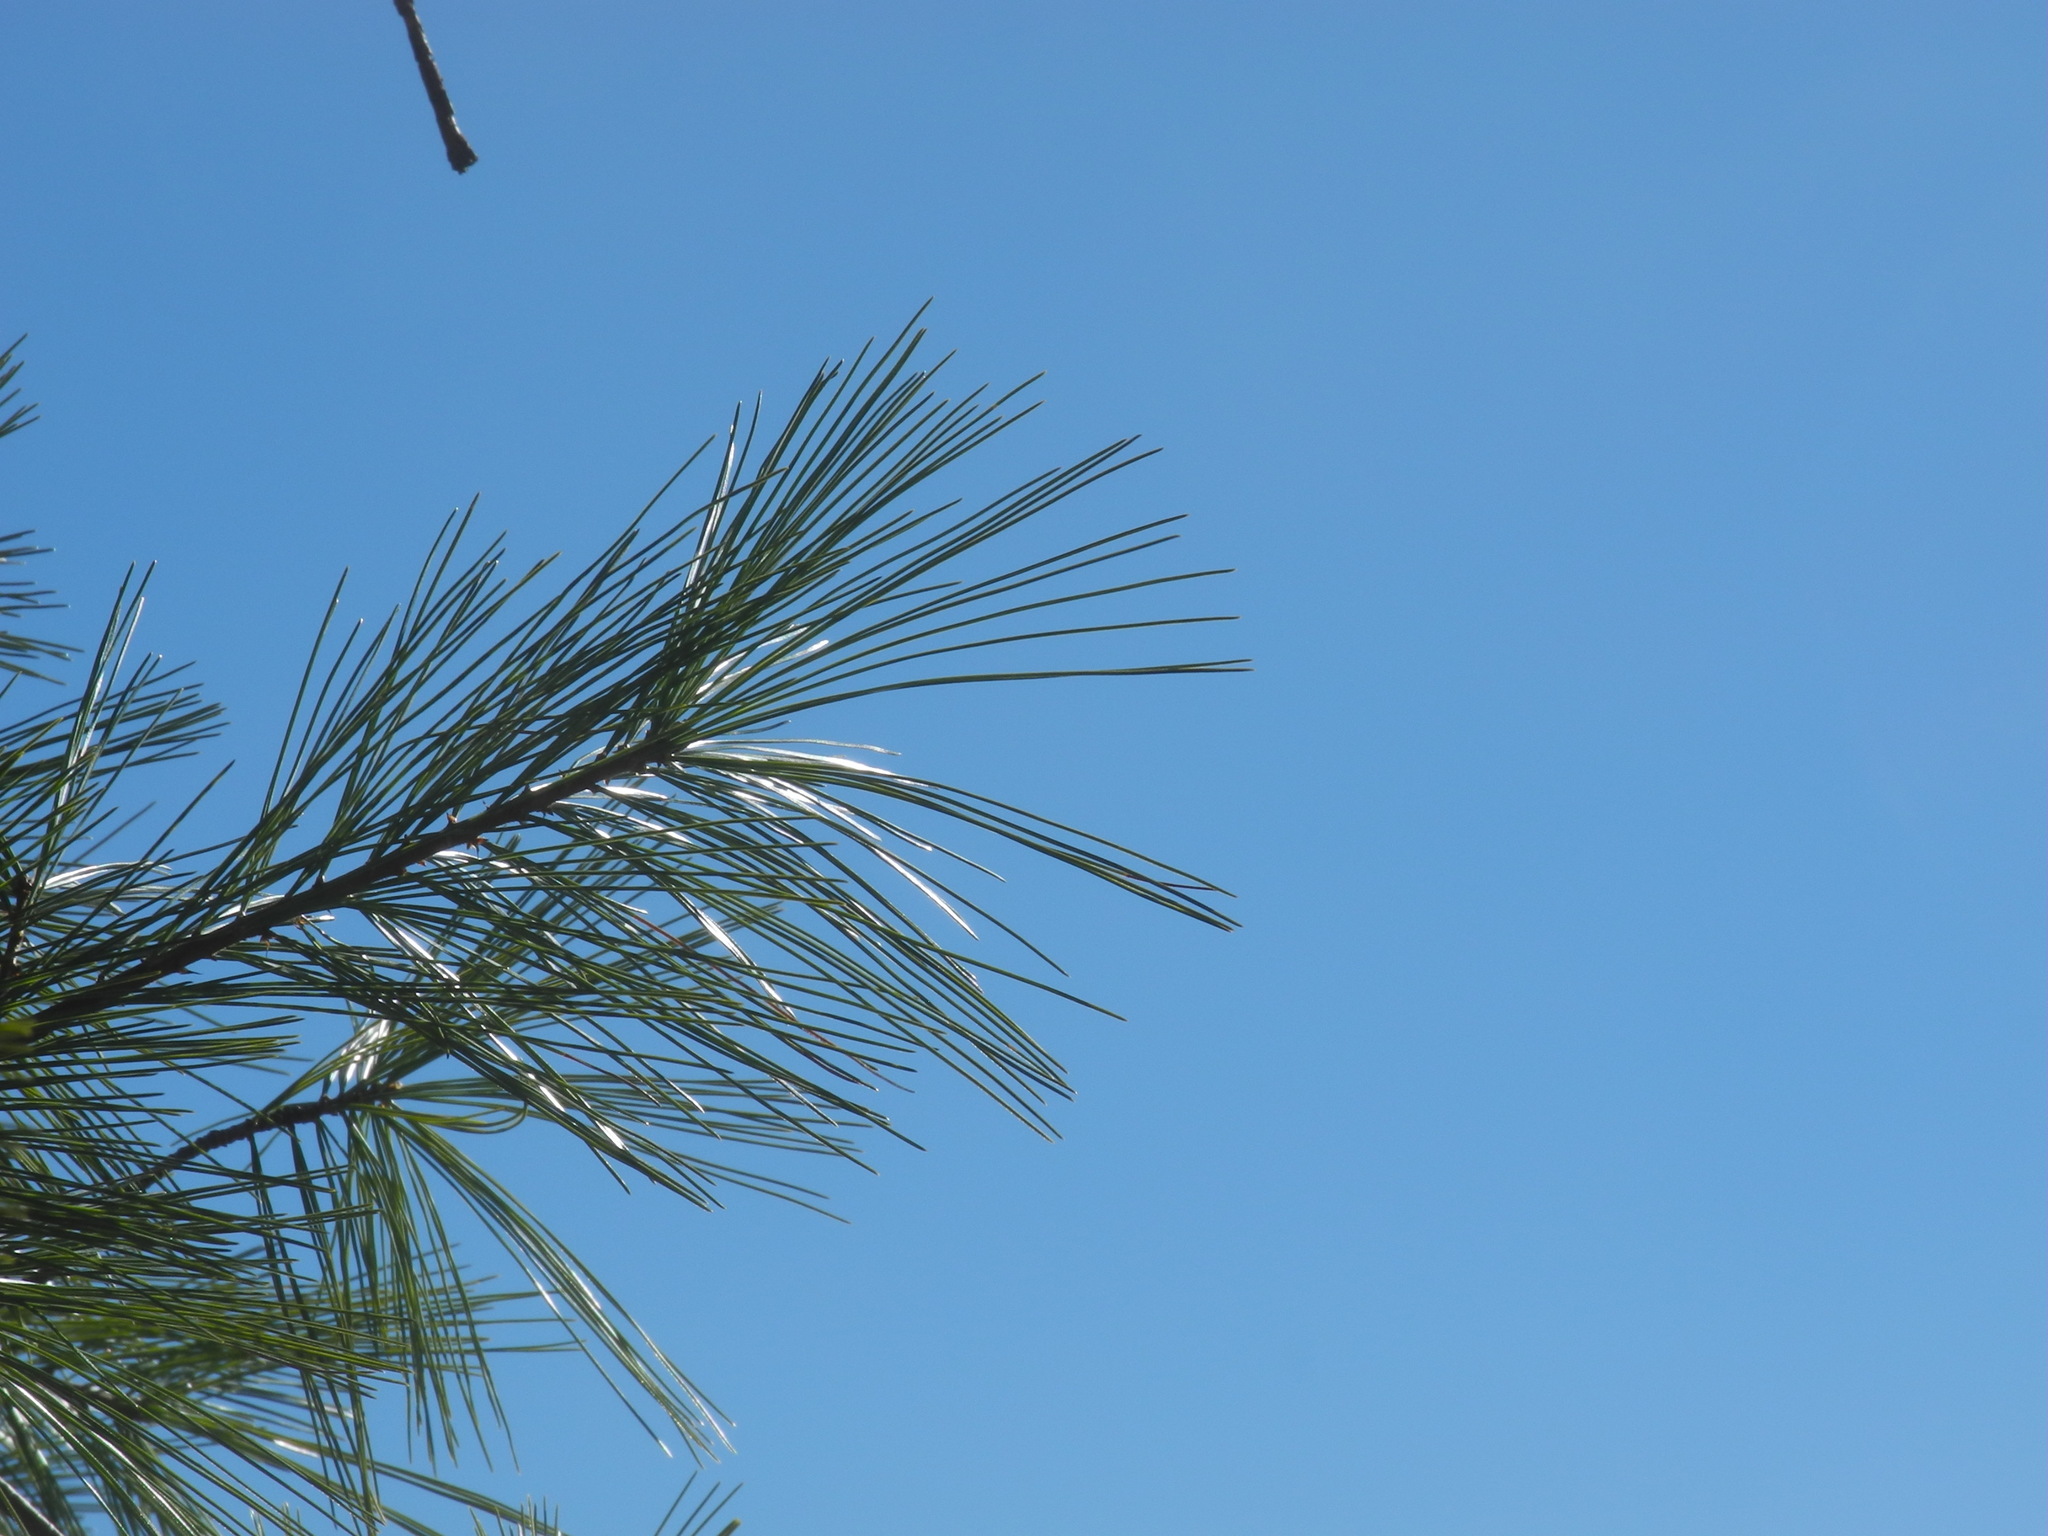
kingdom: Plantae
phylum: Tracheophyta
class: Pinopsida
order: Pinales
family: Pinaceae
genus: Pinus
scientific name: Pinus strobus
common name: Weymouth pine
